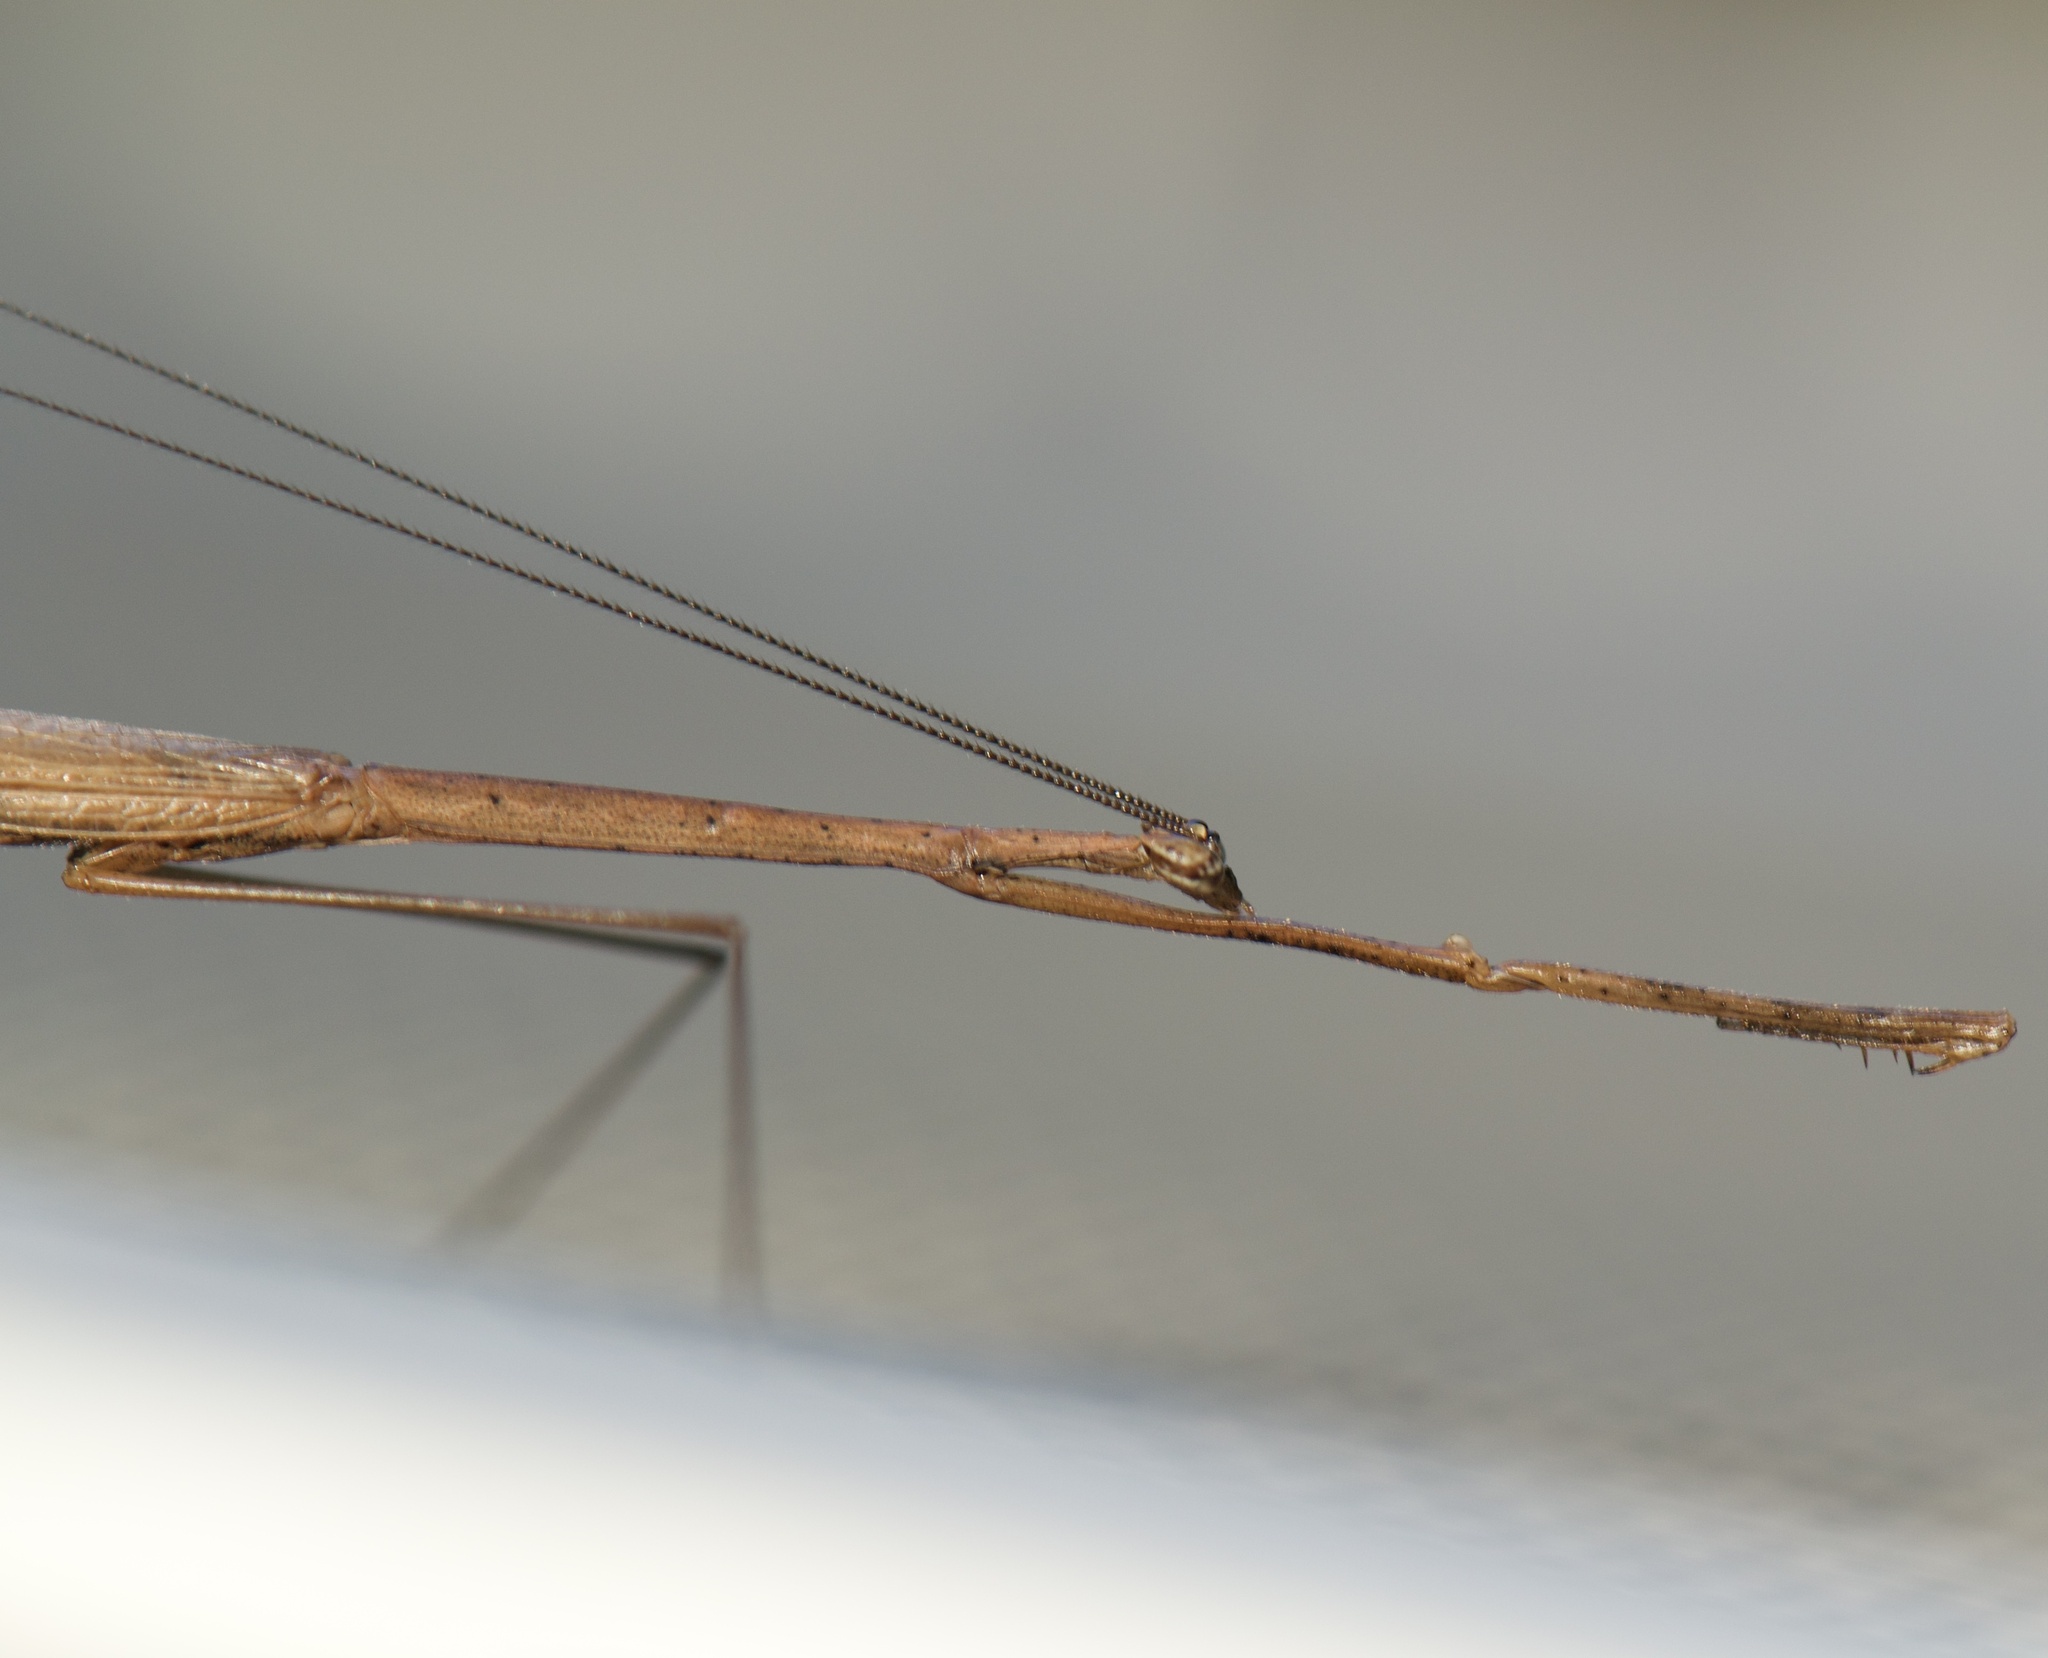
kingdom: Animalia
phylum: Arthropoda
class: Insecta
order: Mantodea
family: Thespidae
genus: Thesprotia
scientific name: Thesprotia graminis
